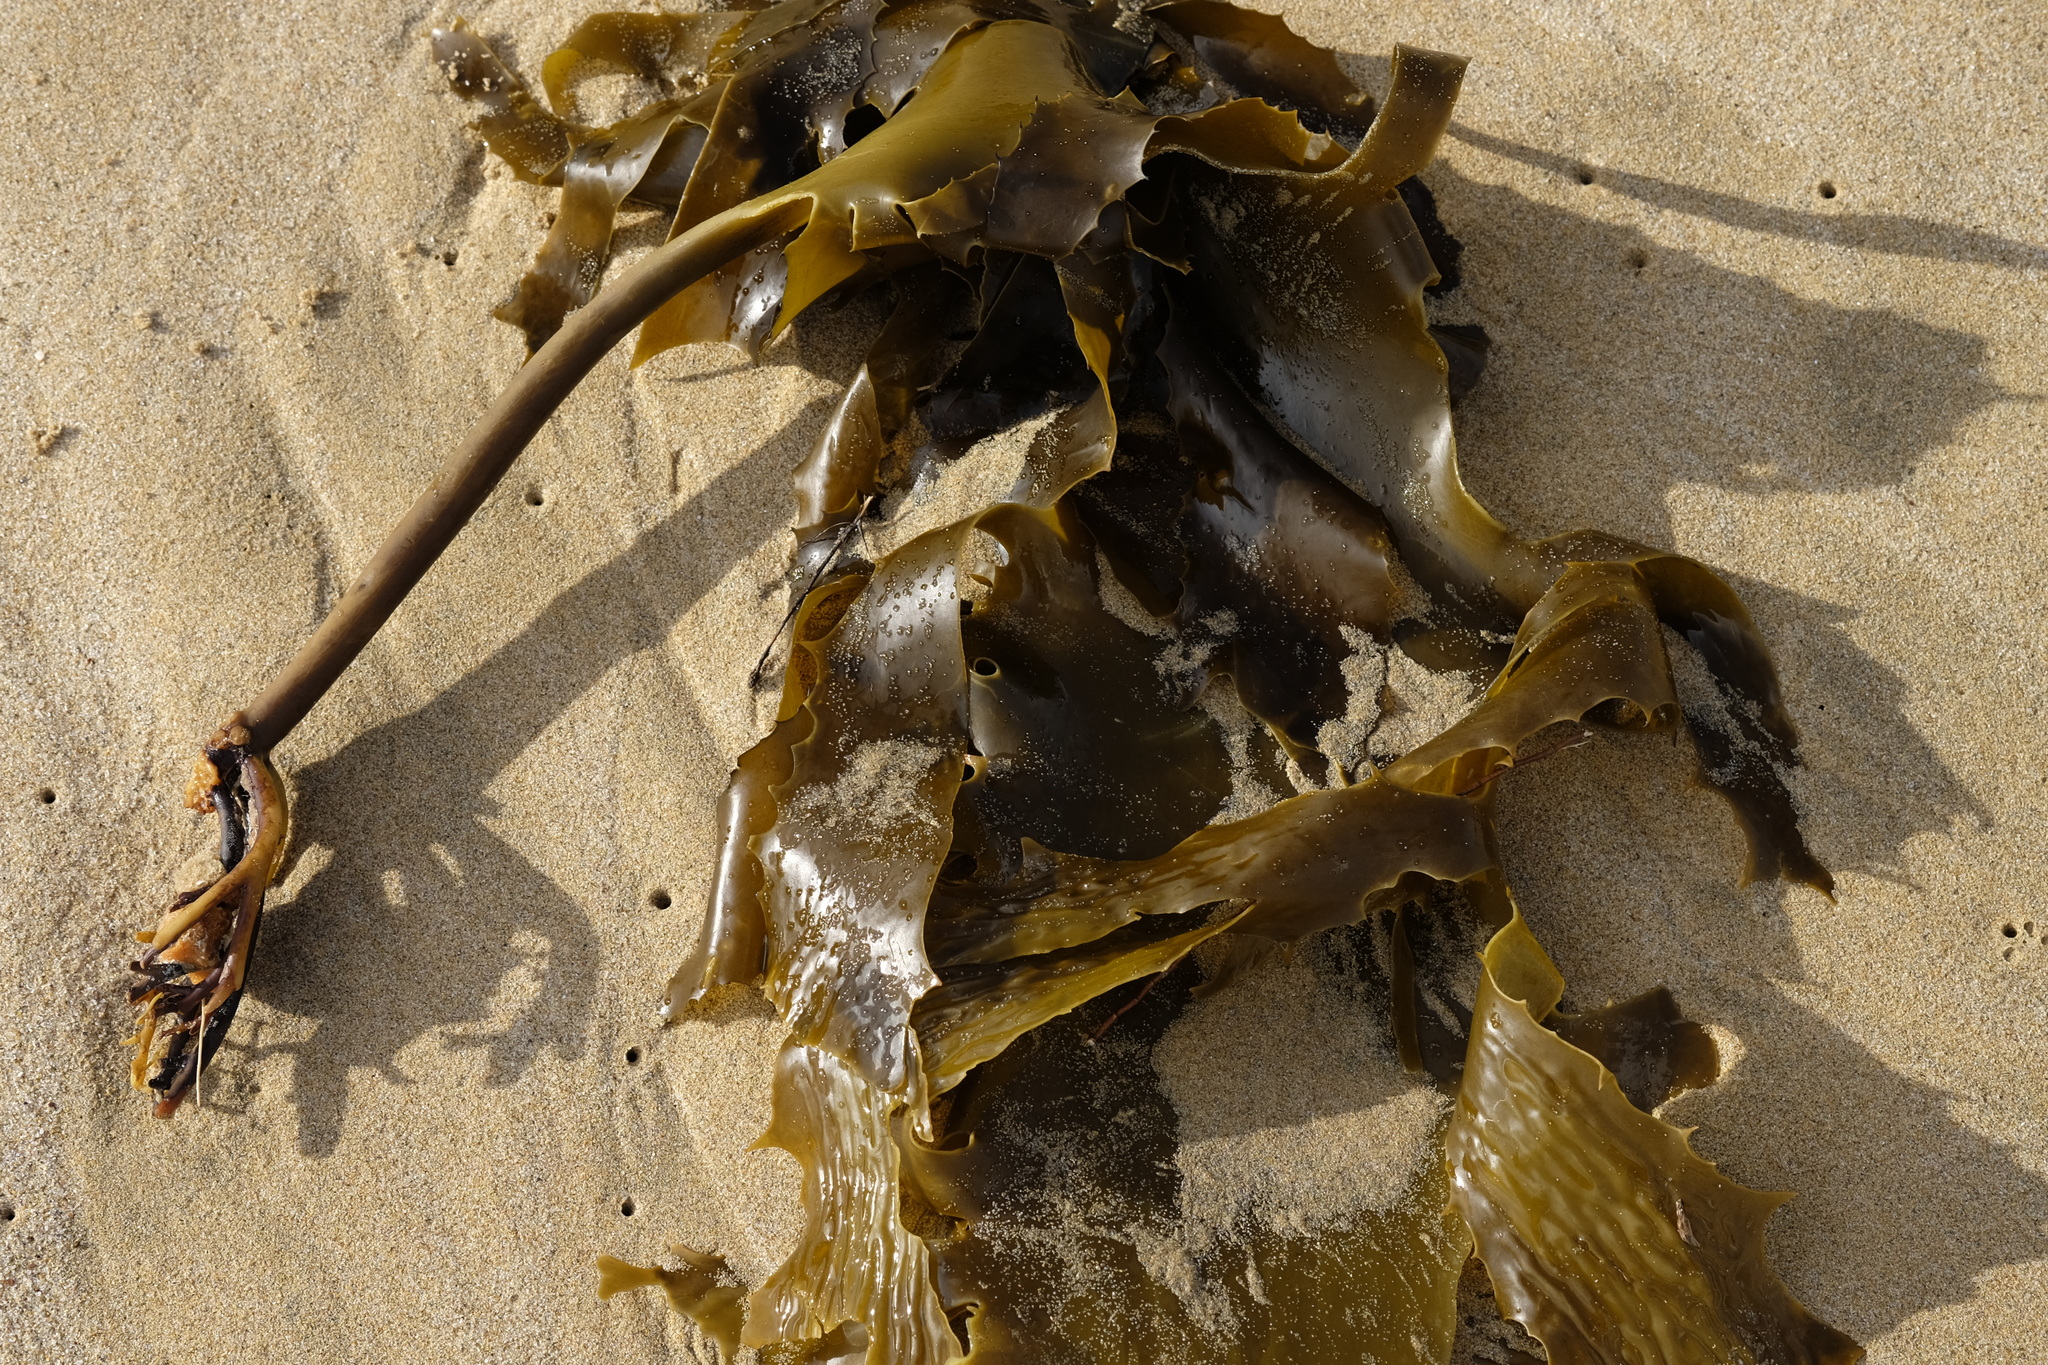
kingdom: Chromista
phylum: Ochrophyta
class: Phaeophyceae
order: Laminariales
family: Lessoniaceae
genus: Ecklonia
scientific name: Ecklonia radiata
